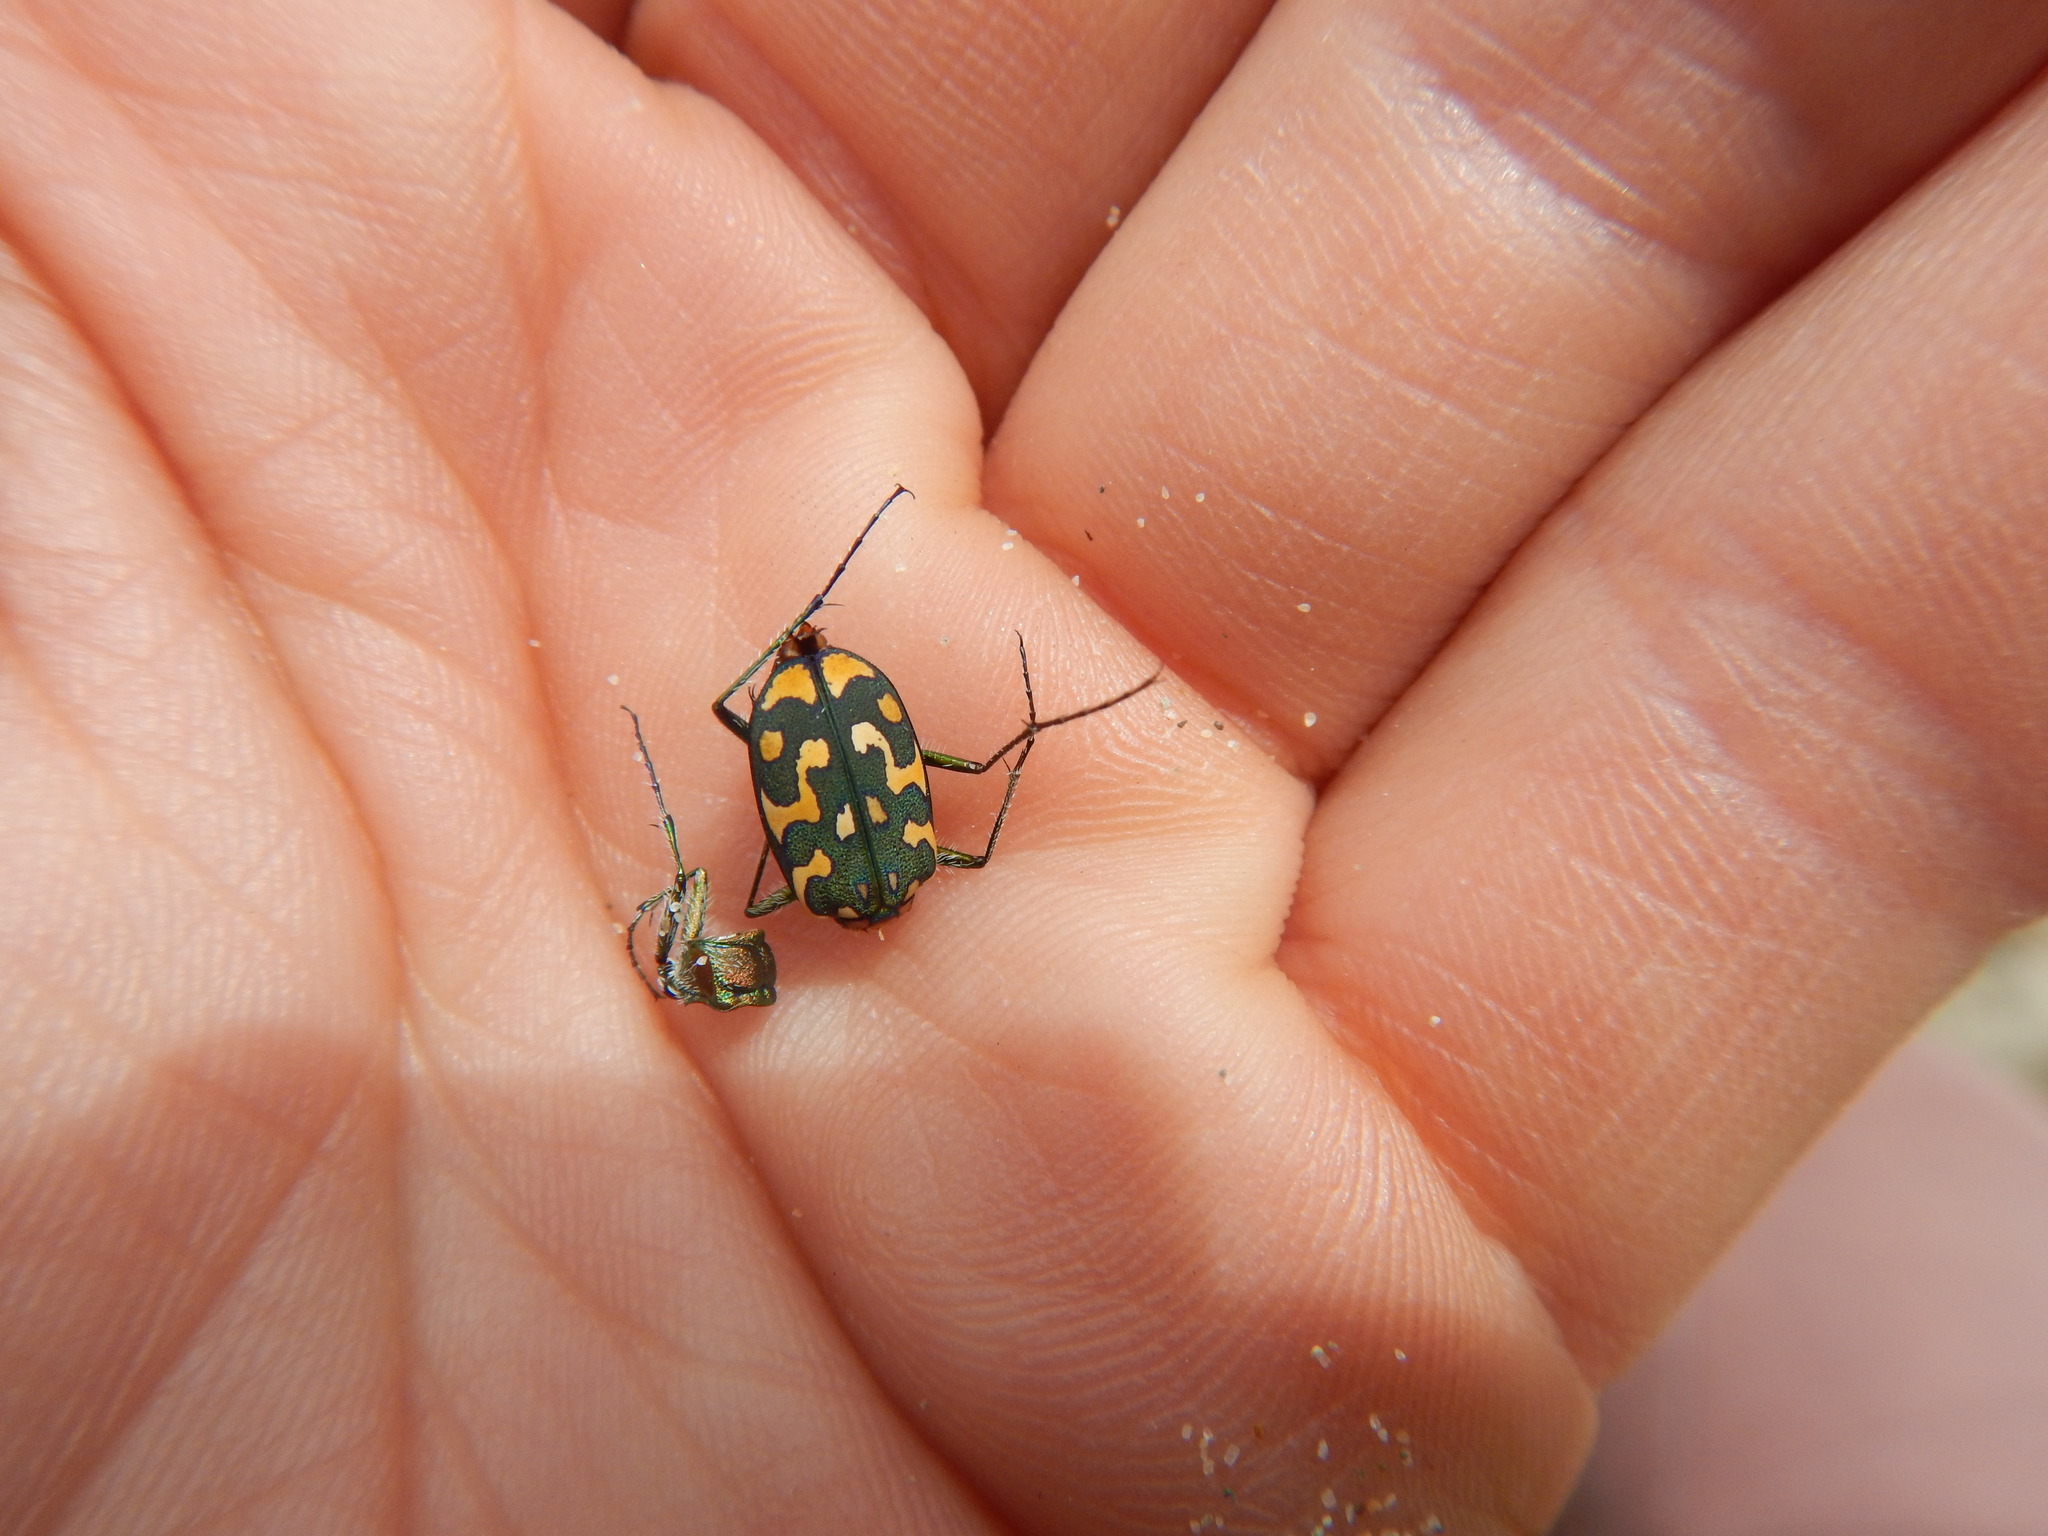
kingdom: Animalia
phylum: Arthropoda
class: Insecta
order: Coleoptera
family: Carabidae
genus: Lophyra
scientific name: Lophyra flexuosa
